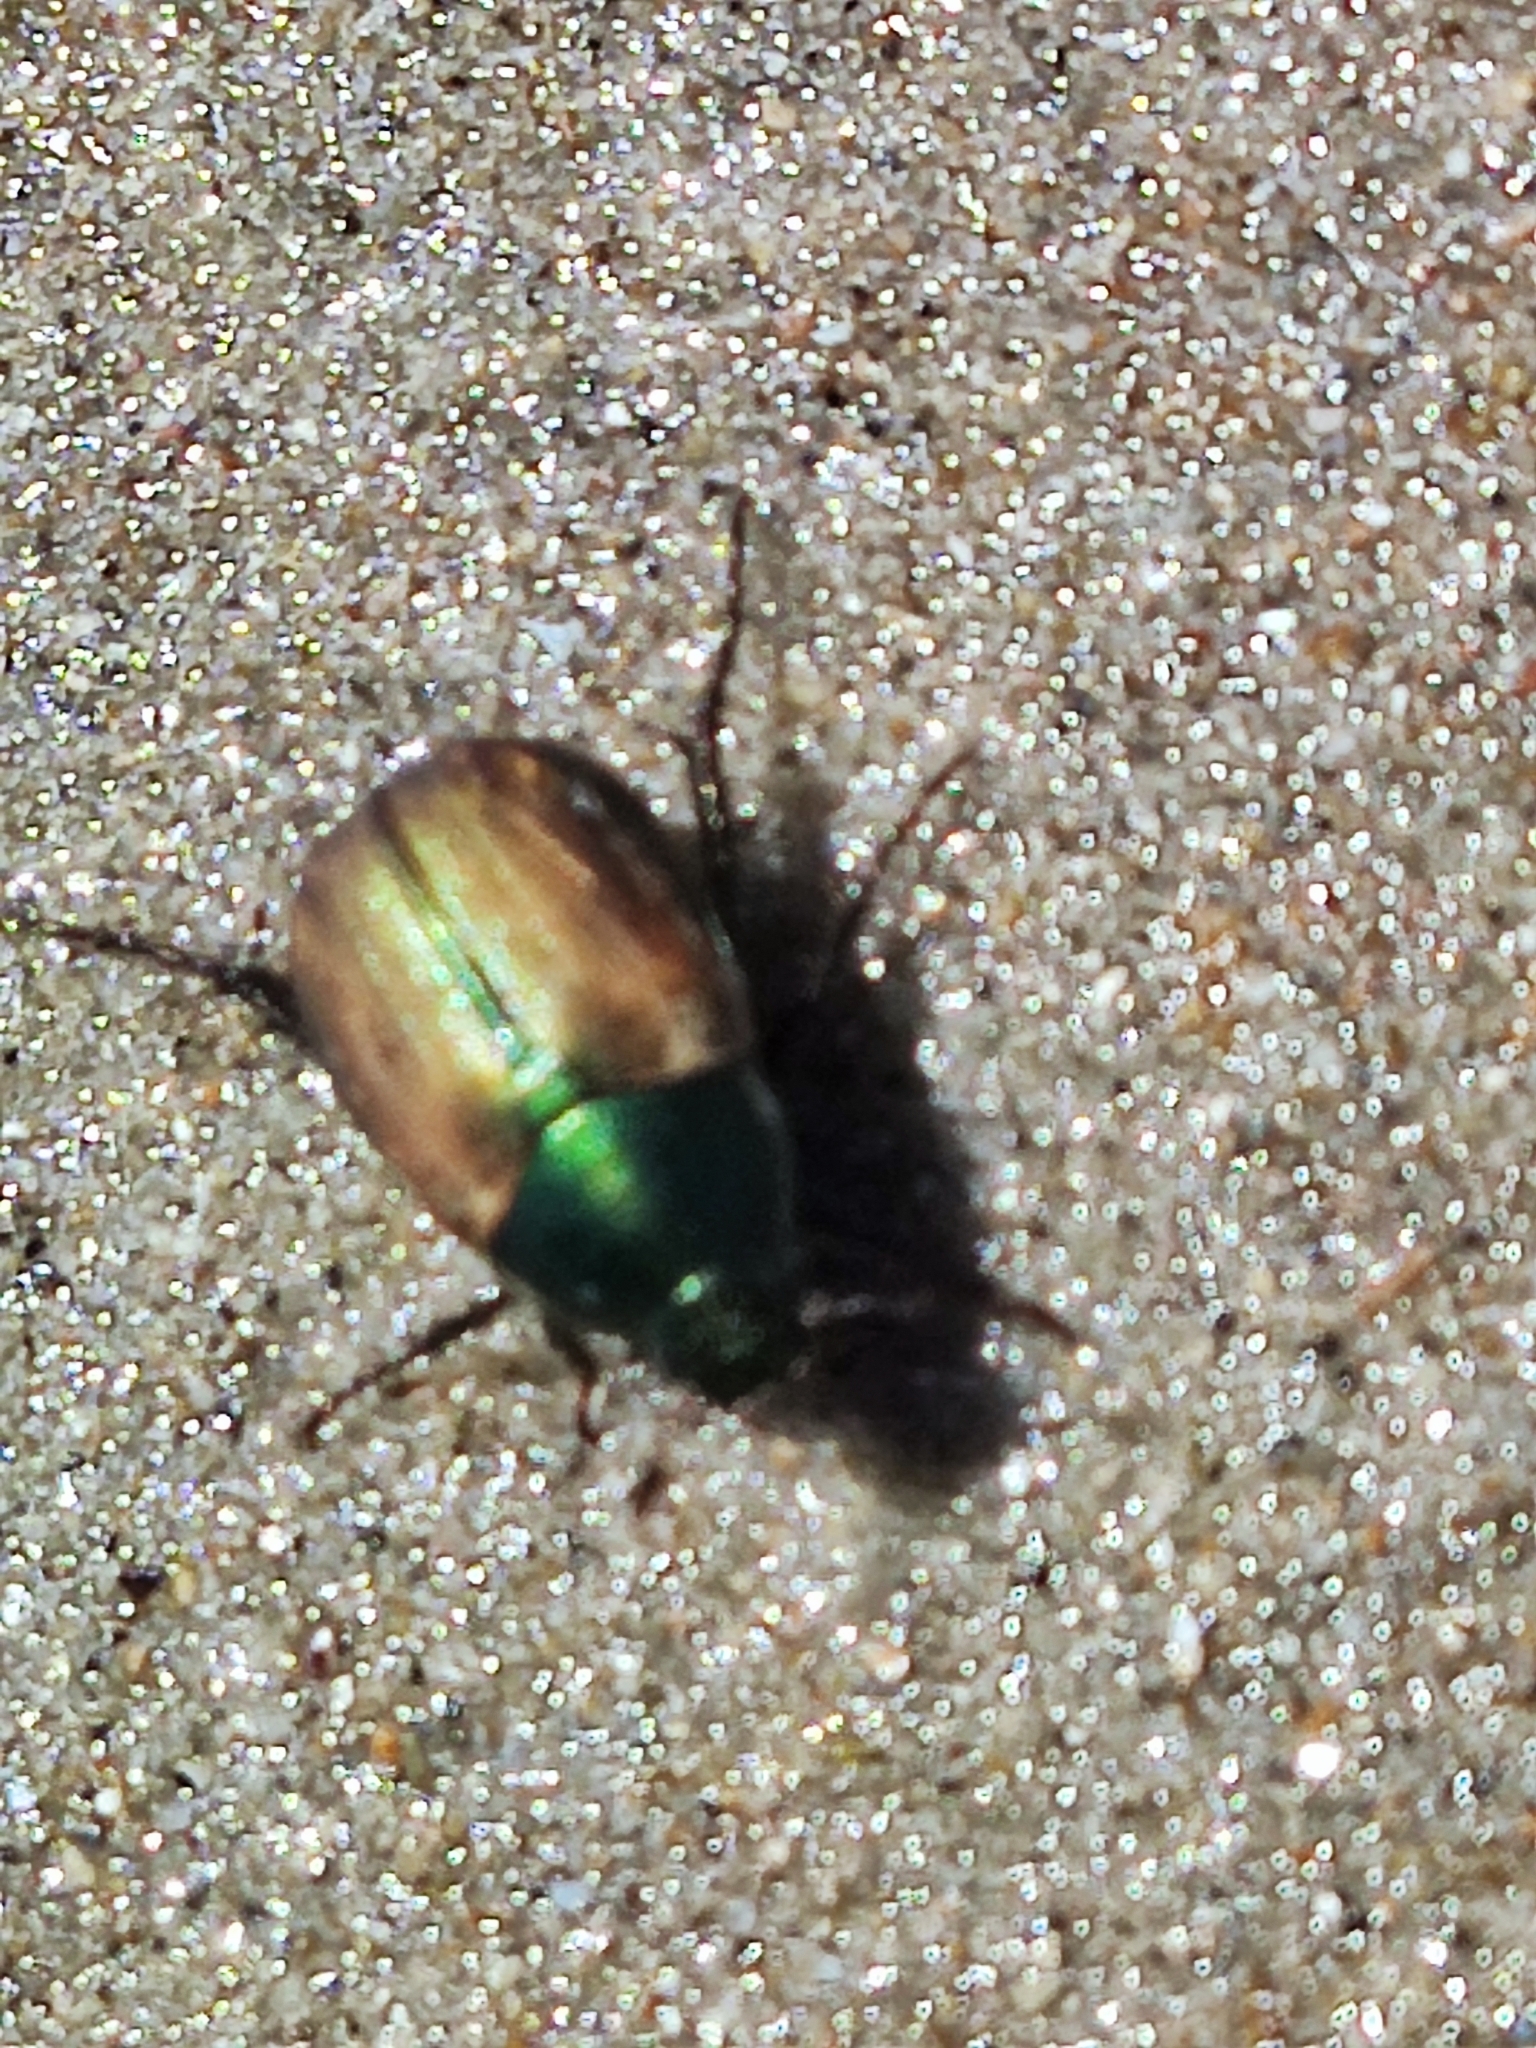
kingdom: Animalia
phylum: Arthropoda
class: Insecta
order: Coleoptera
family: Scarabaeidae
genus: Anomala
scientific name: Anomala dubia
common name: Dune chafer
